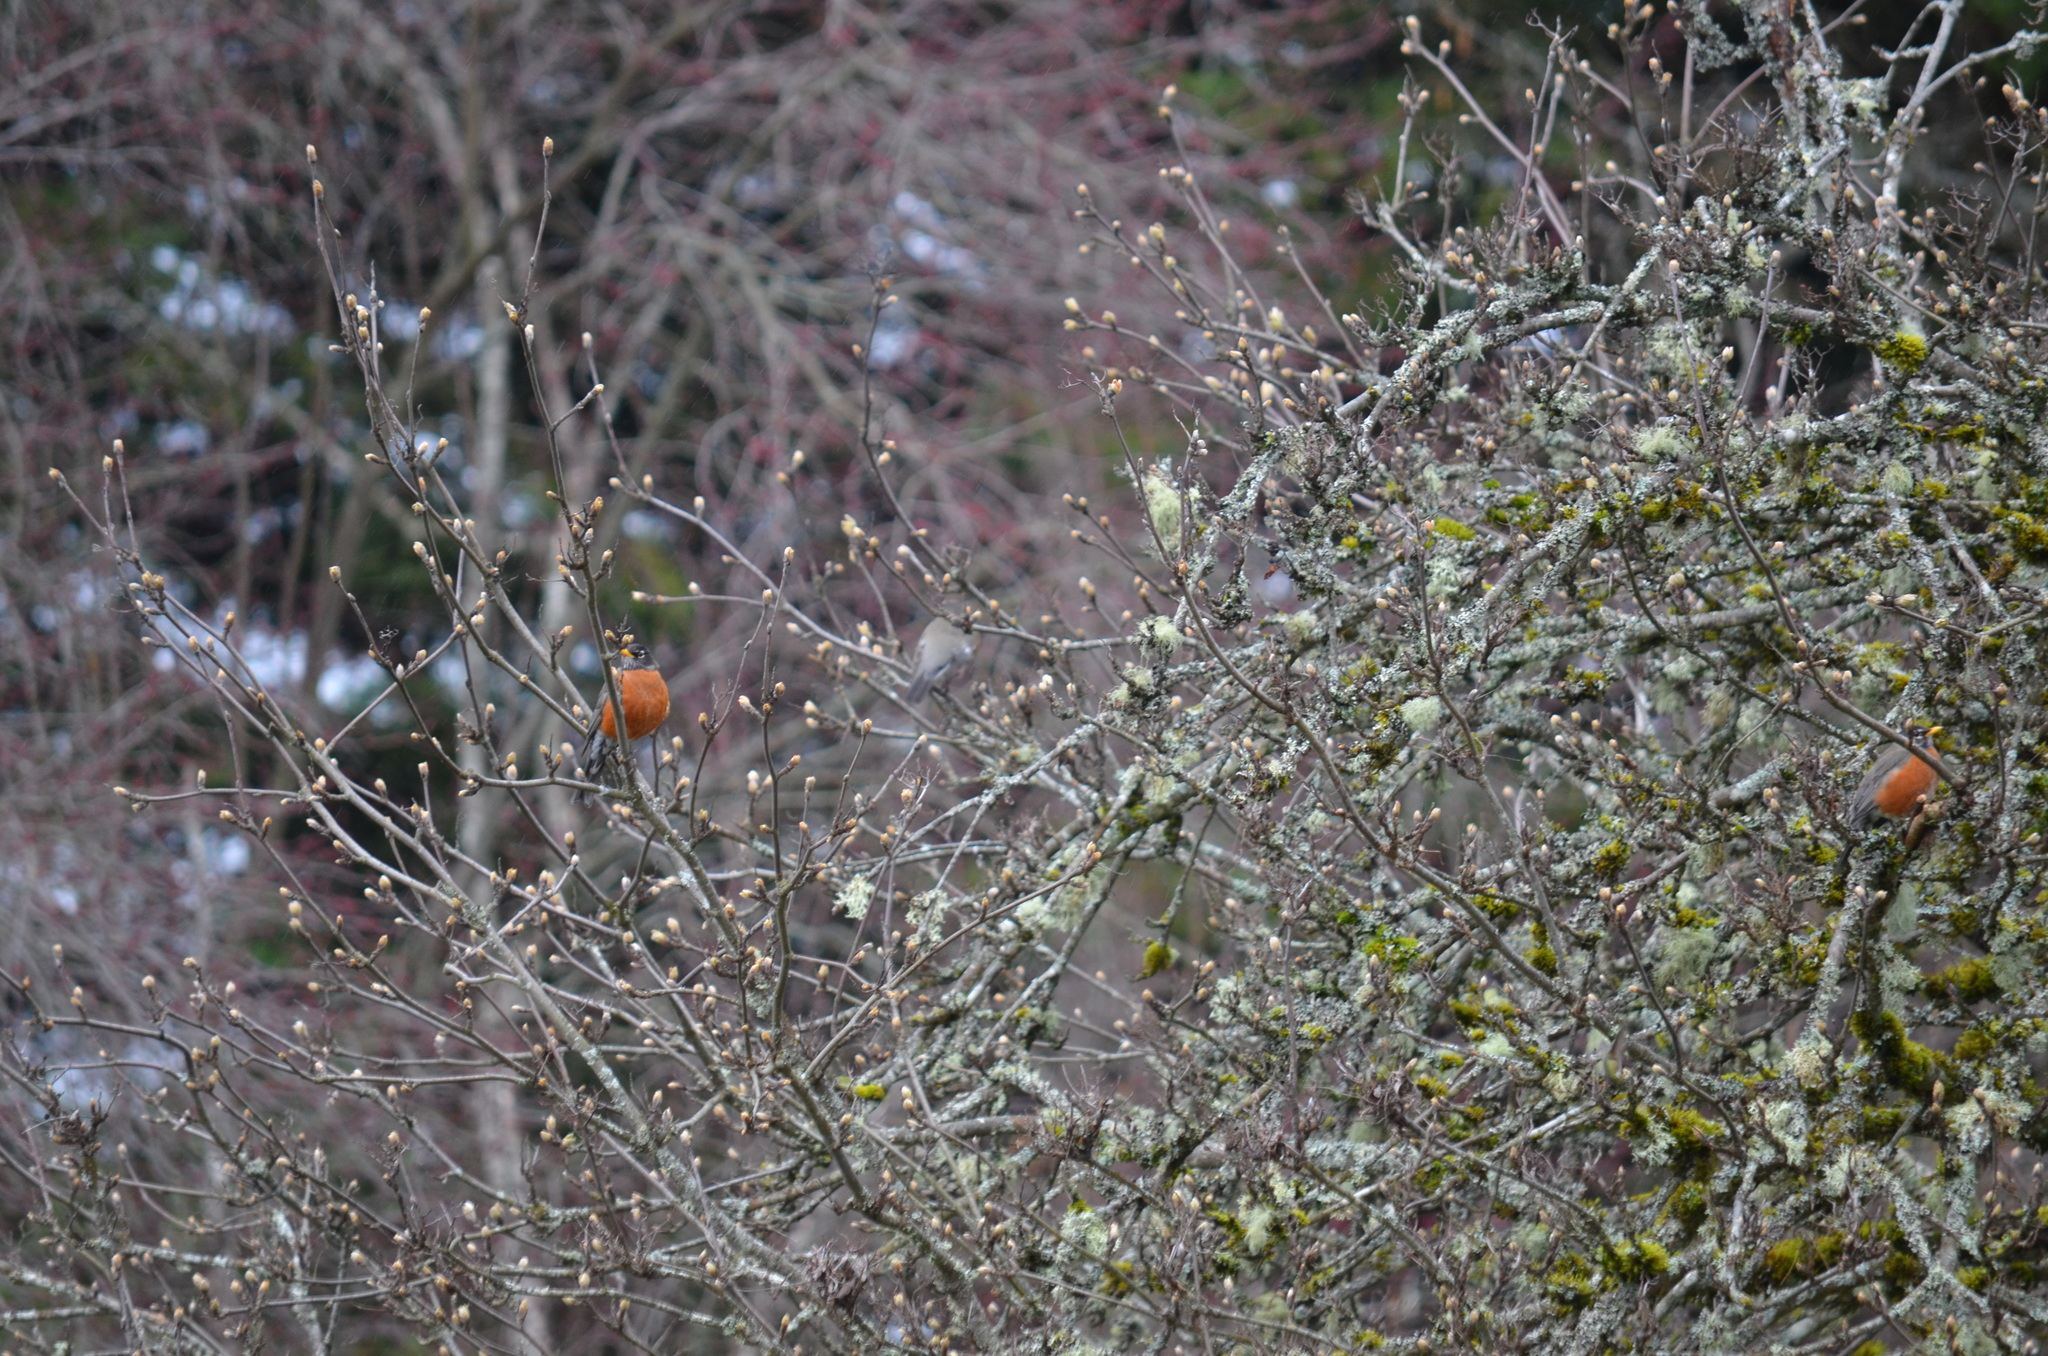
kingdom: Animalia
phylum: Chordata
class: Aves
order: Passeriformes
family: Turdidae
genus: Turdus
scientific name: Turdus migratorius
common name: American robin
